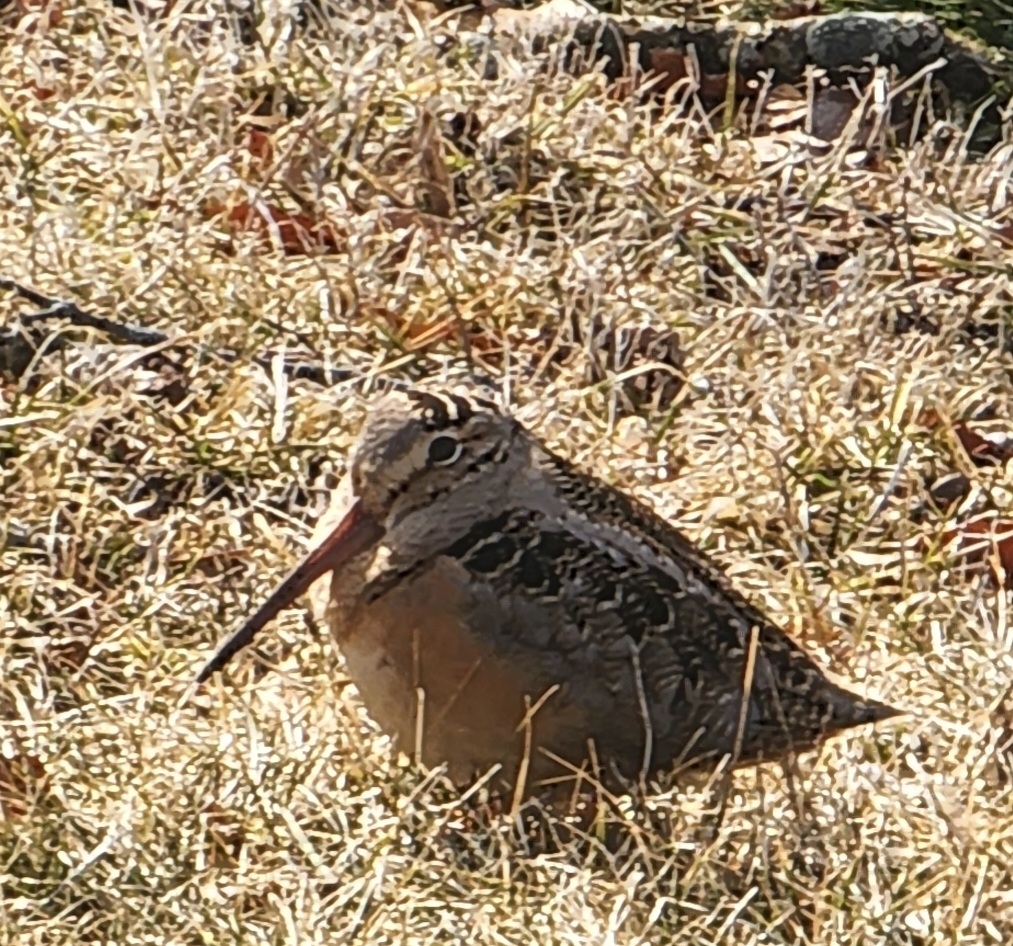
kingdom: Animalia
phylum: Chordata
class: Aves
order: Charadriiformes
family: Scolopacidae
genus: Scolopax
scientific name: Scolopax minor
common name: American woodcock
